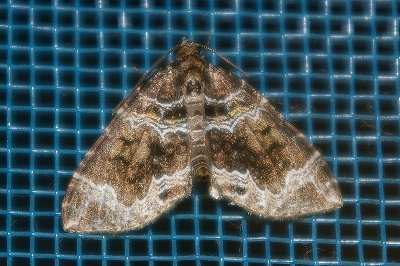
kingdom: Animalia
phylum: Arthropoda
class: Insecta
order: Lepidoptera
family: Geometridae
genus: Lampropteryx
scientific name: Lampropteryx otregiata
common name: Devon carpet
